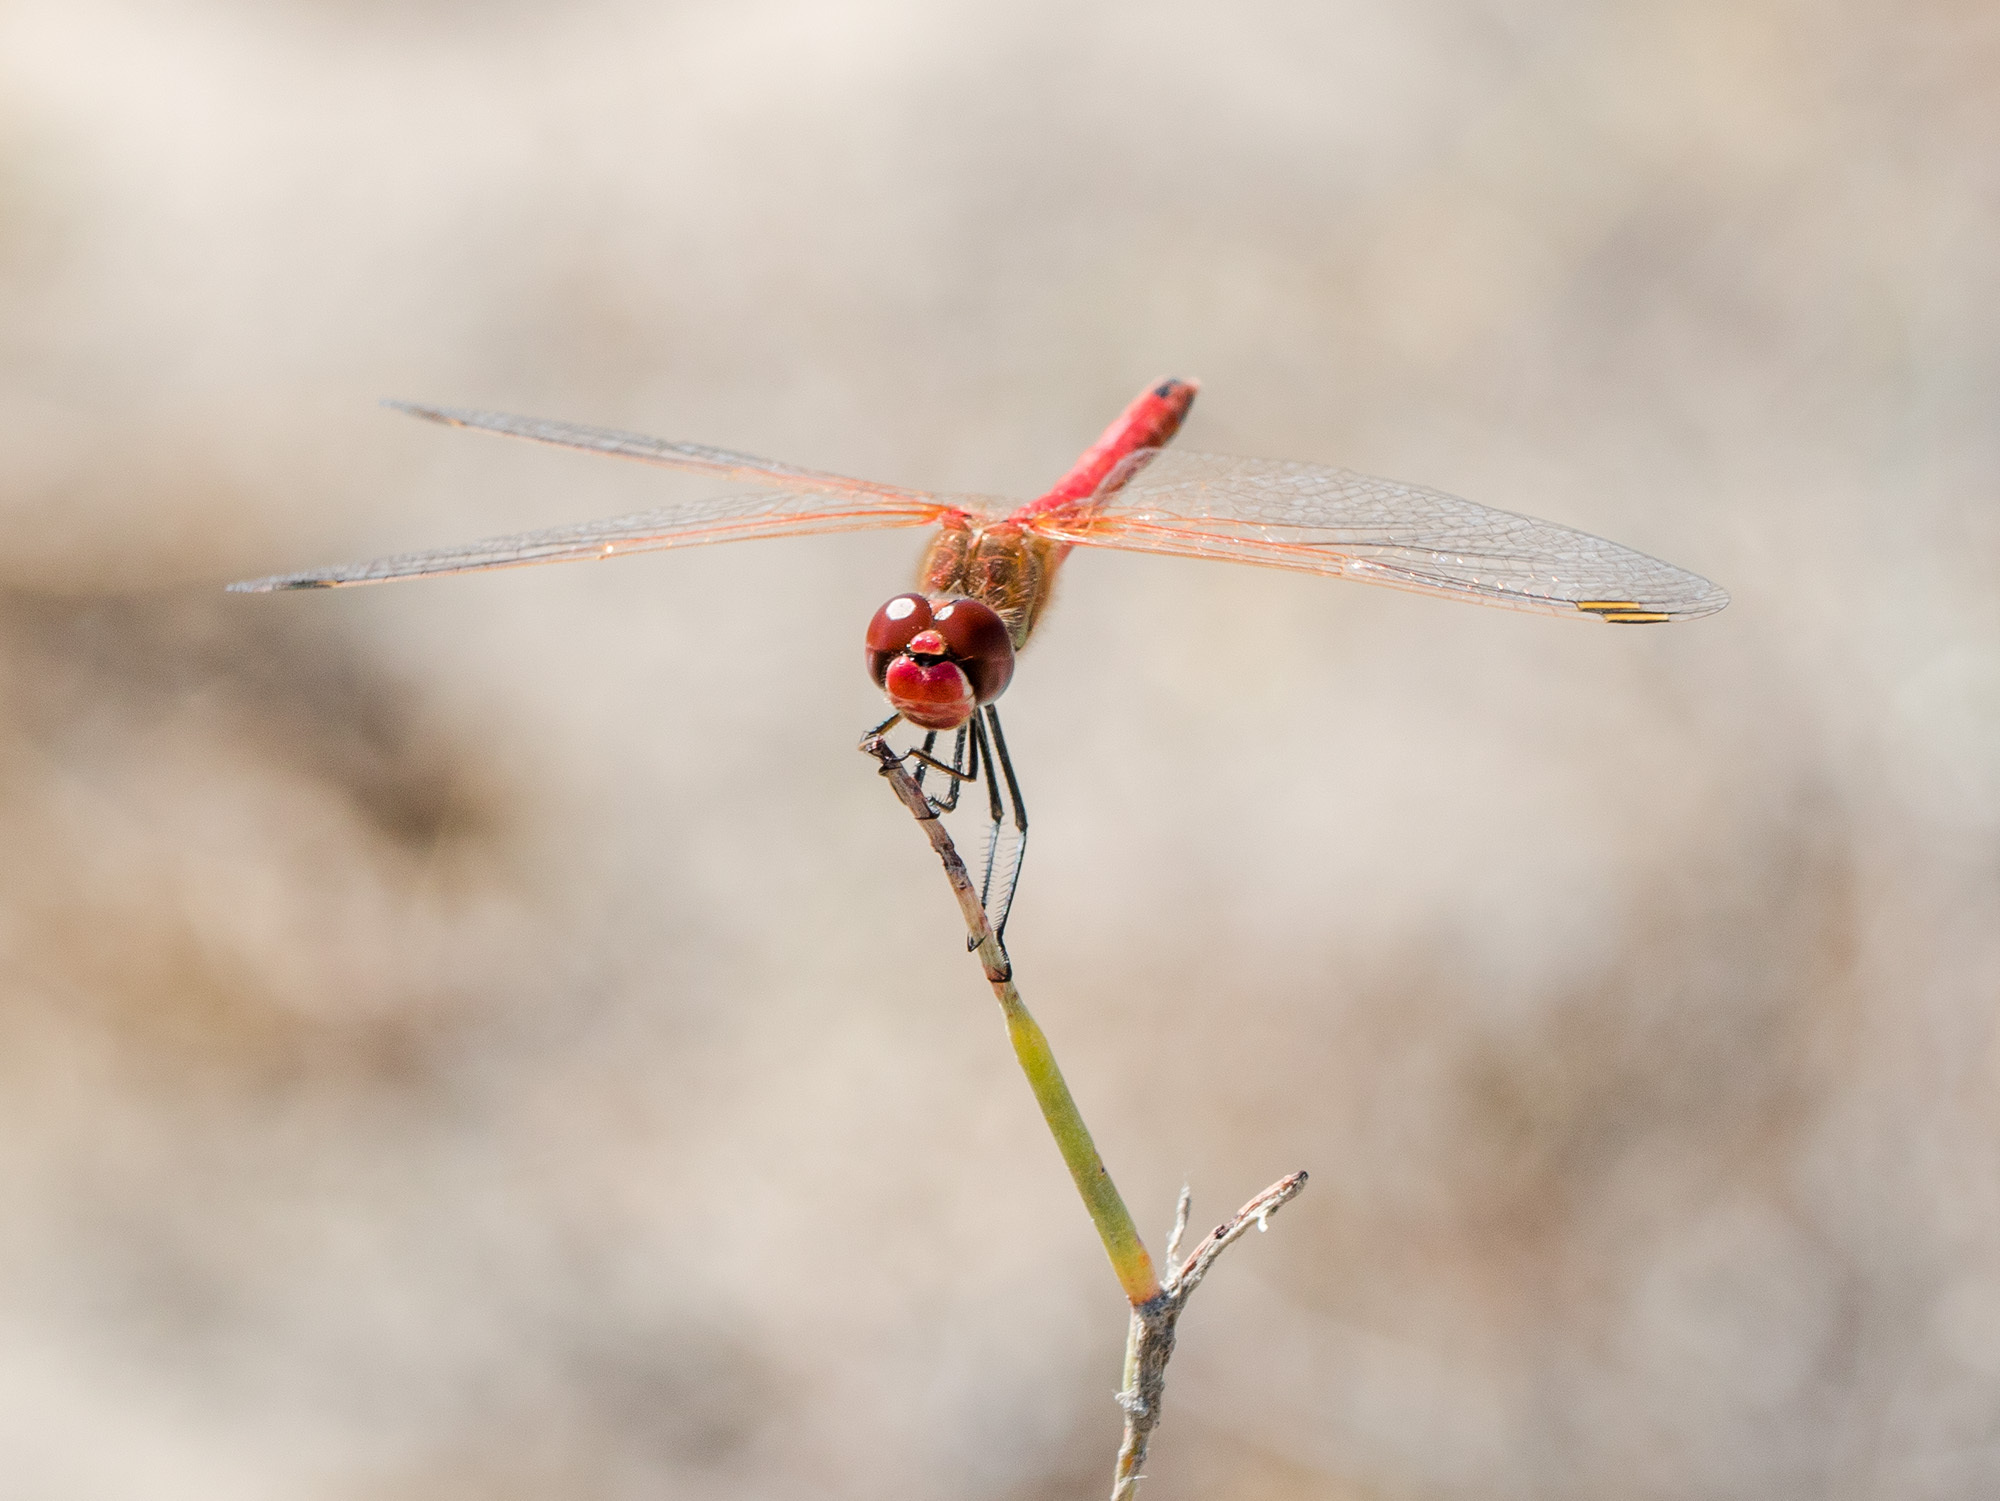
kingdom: Animalia
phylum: Arthropoda
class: Insecta
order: Odonata
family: Libellulidae
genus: Sympetrum
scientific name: Sympetrum fonscolombii
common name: Red-veined darter
